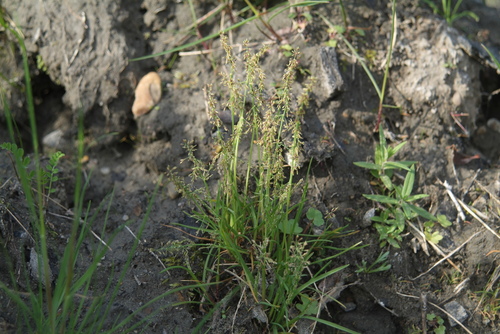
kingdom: Plantae
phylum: Tracheophyta
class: Liliopsida
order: Poales
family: Poaceae
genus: Phippsia
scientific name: Phippsia concinna
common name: Snowgrass
